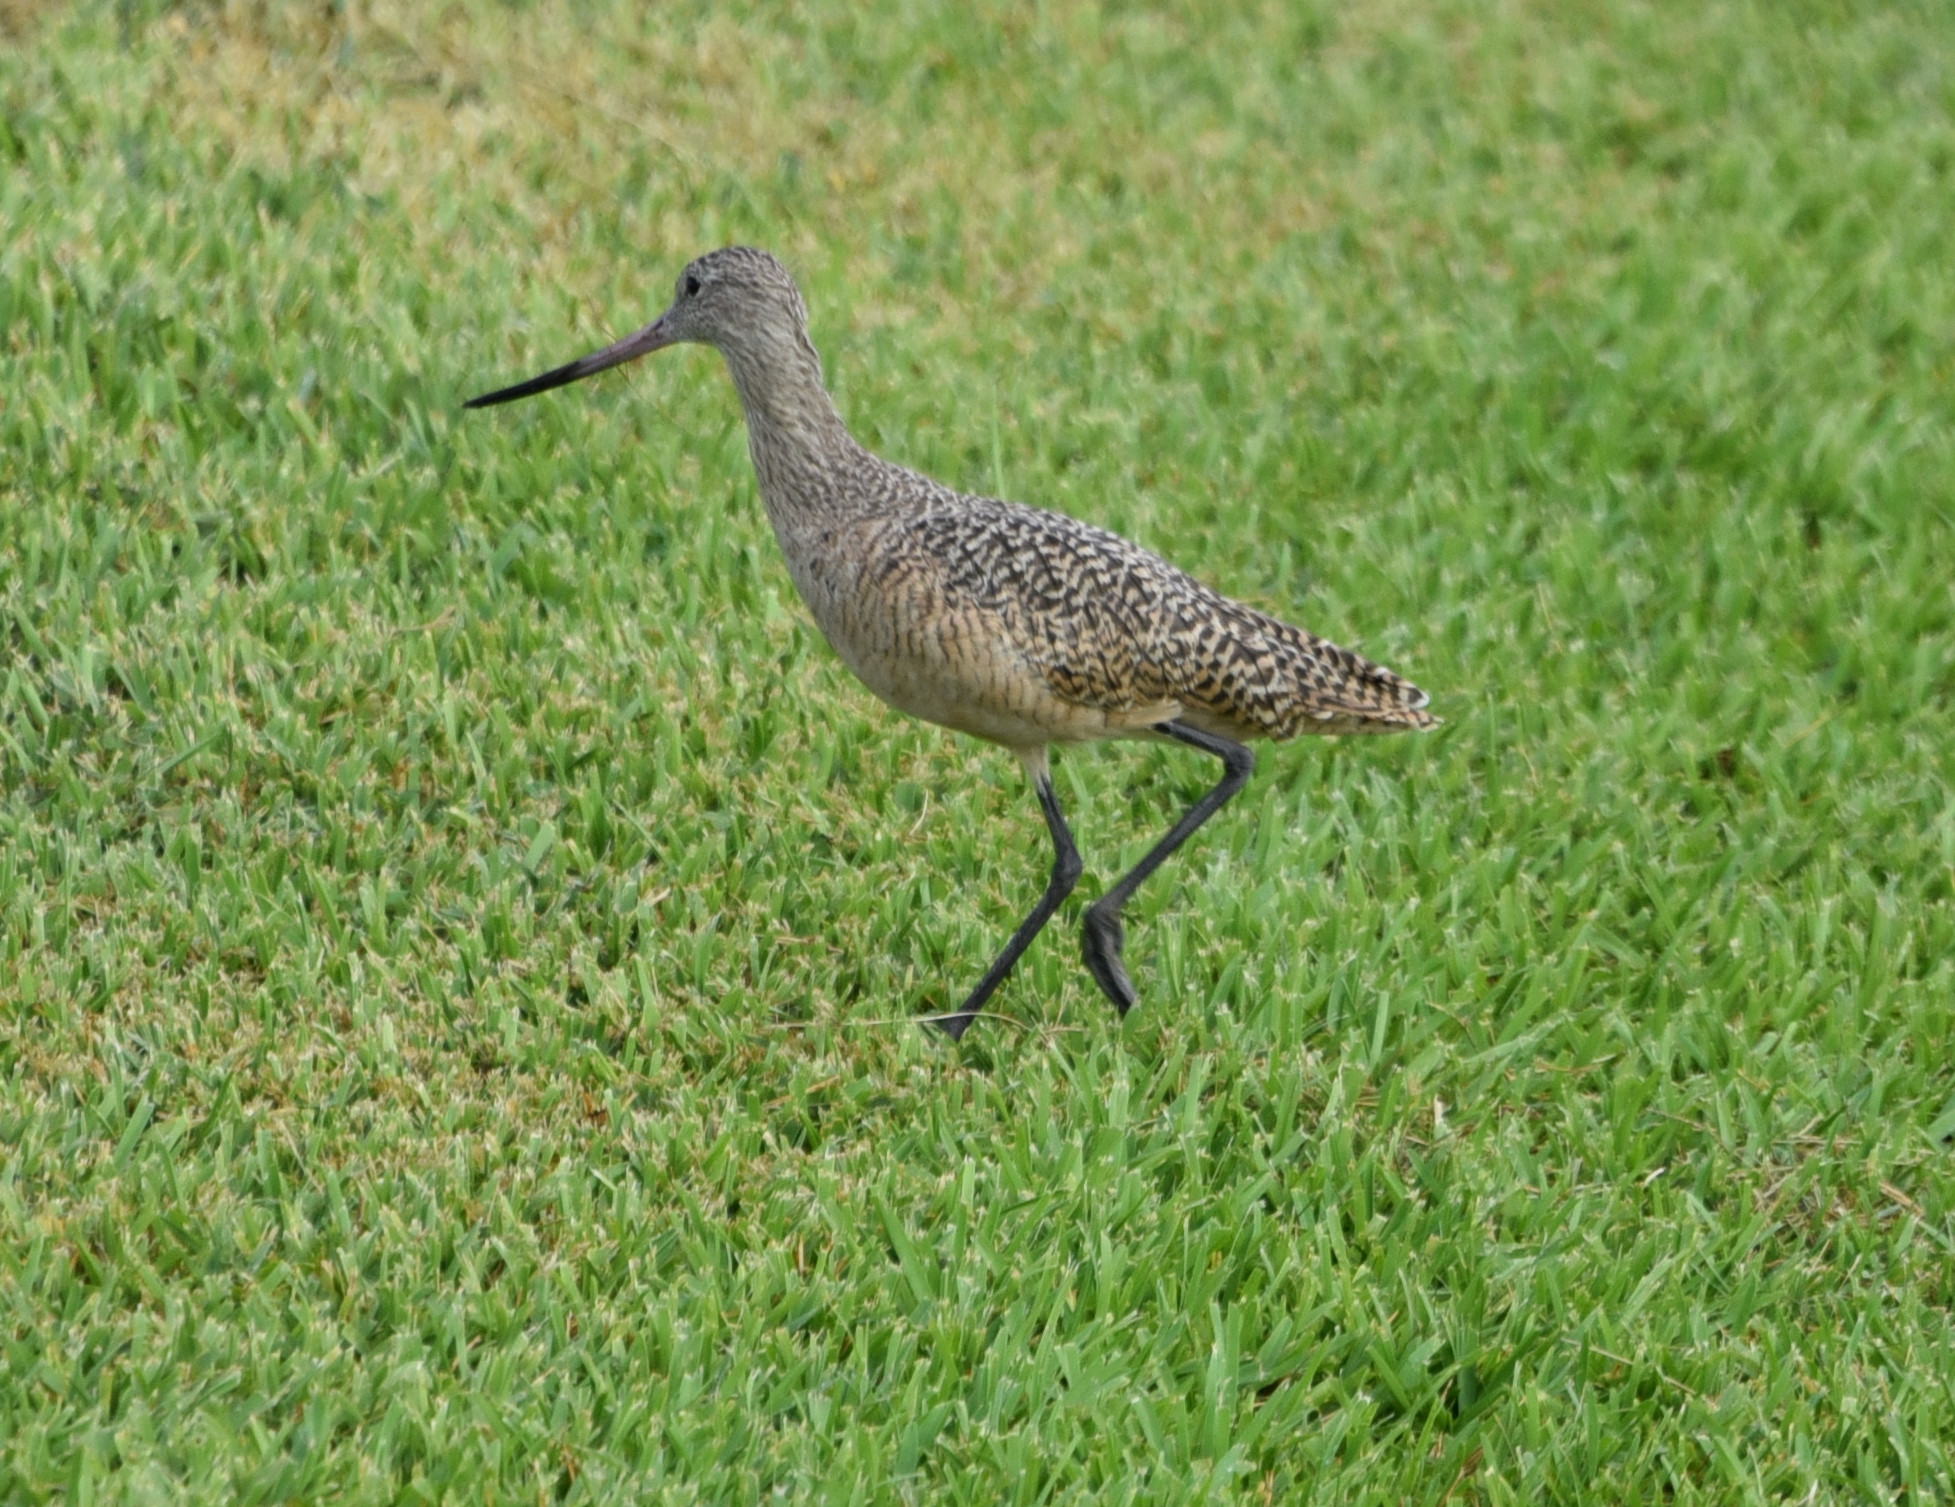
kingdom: Animalia
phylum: Chordata
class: Aves
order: Charadriiformes
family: Scolopacidae
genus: Limosa
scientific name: Limosa fedoa
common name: Marbled godwit
